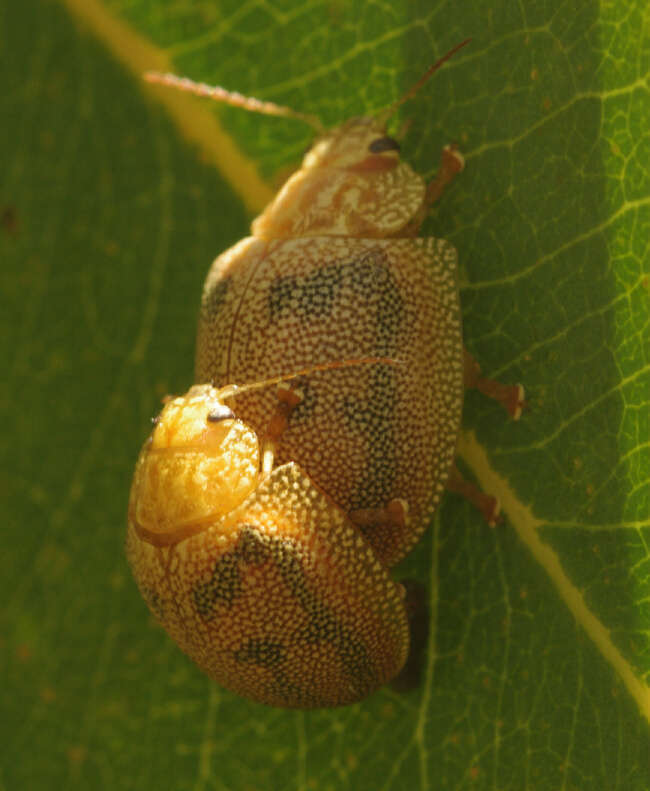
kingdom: Animalia
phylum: Arthropoda
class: Insecta
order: Coleoptera
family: Chrysomelidae
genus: Paropsis
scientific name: Paropsis
